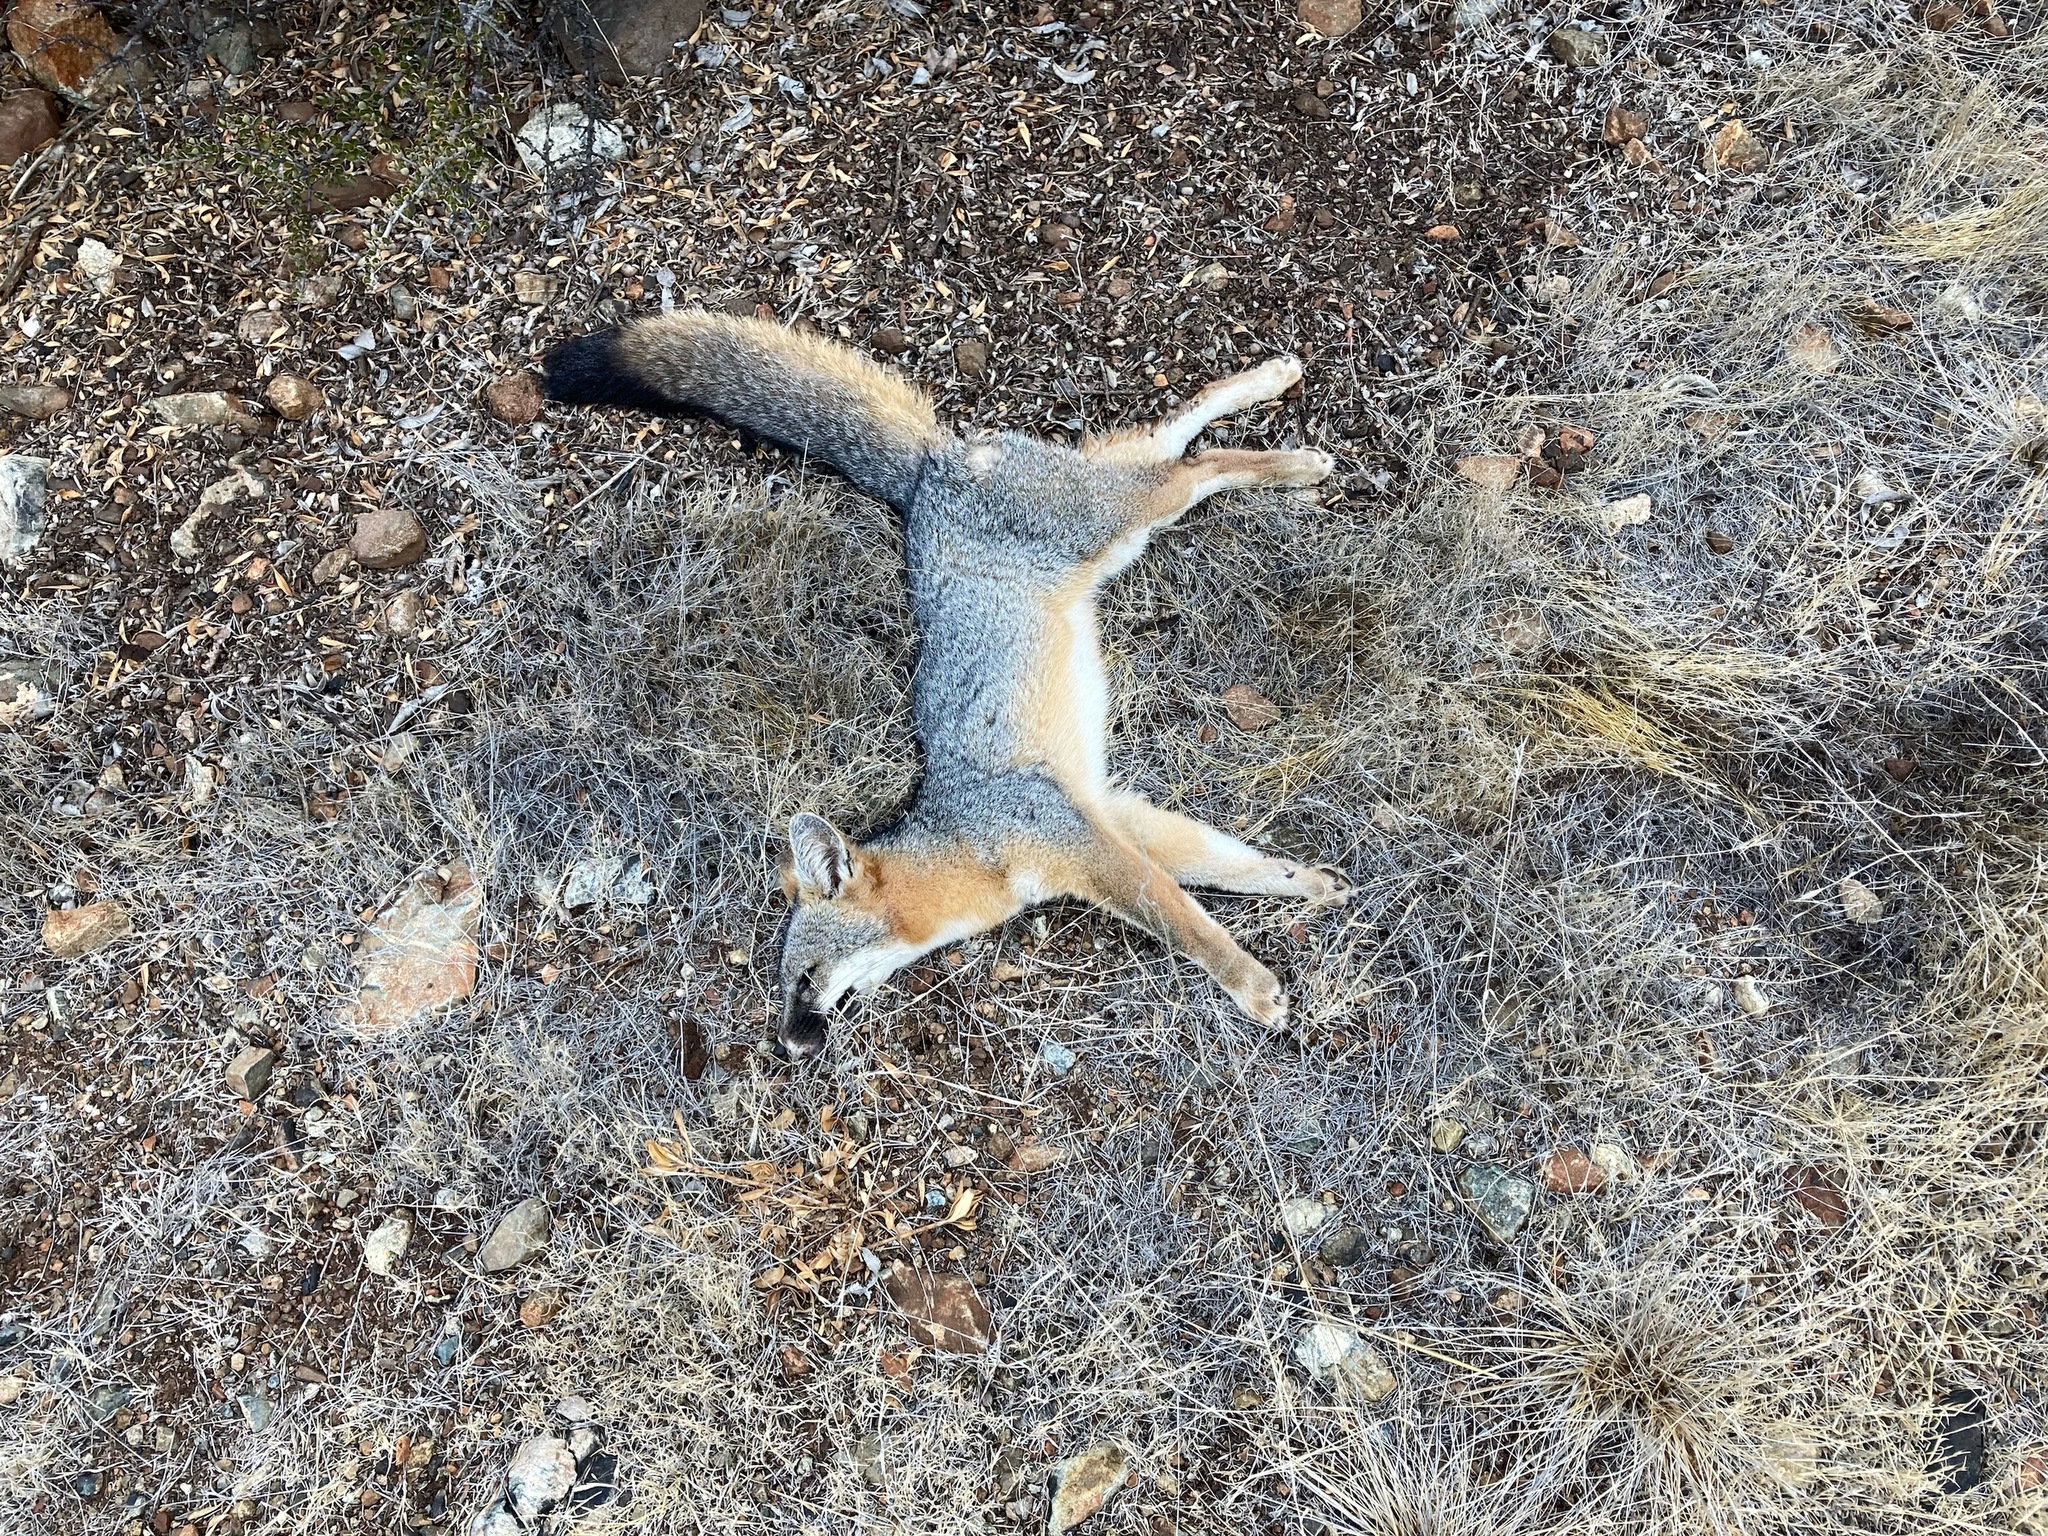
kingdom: Animalia
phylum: Chordata
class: Mammalia
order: Carnivora
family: Canidae
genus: Urocyon
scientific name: Urocyon cinereoargenteus
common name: Gray fox
